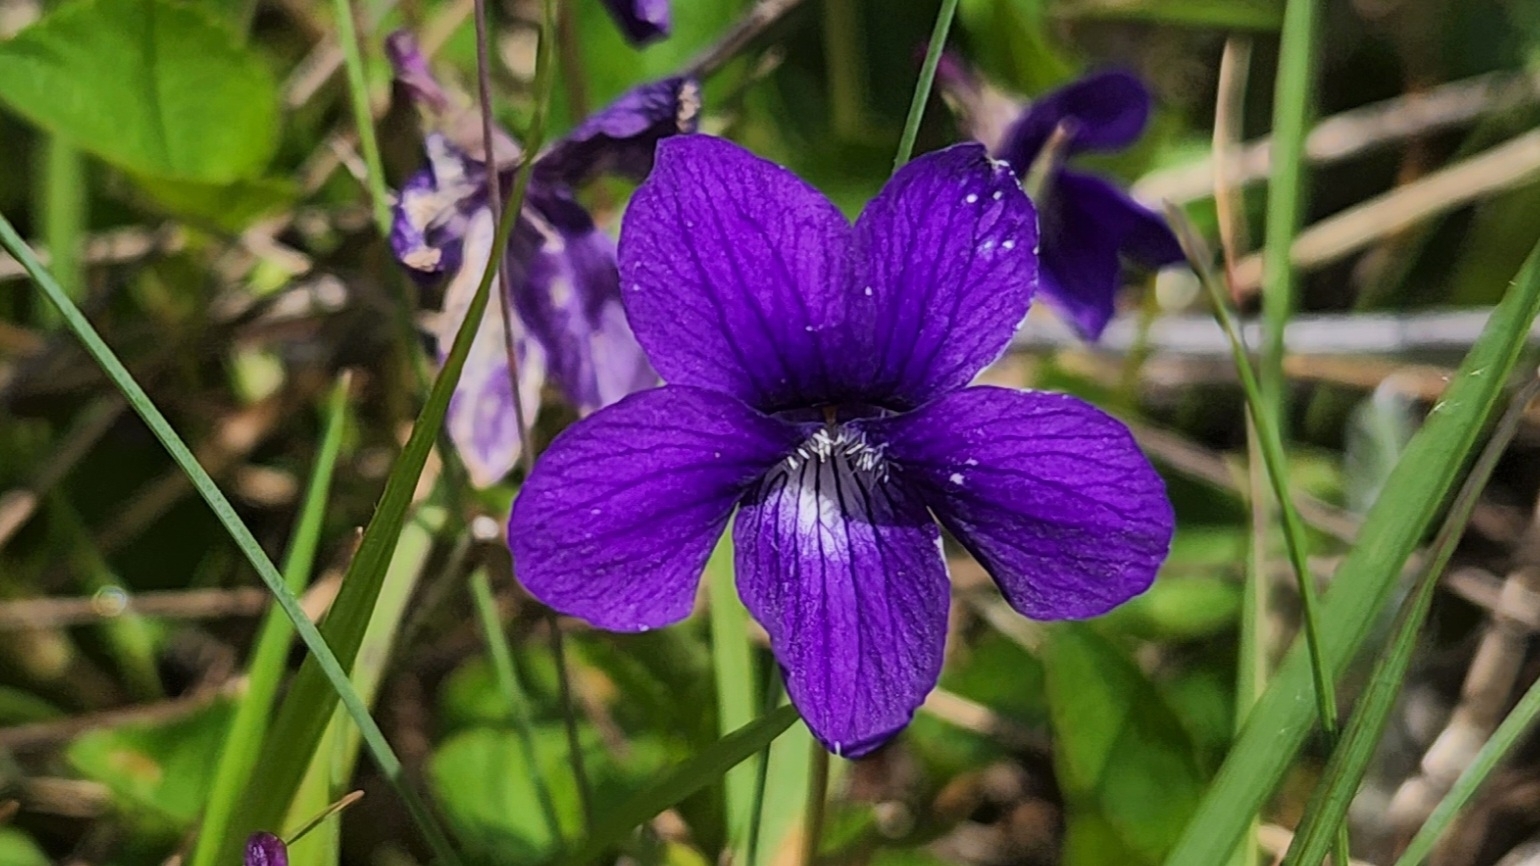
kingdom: Plantae
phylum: Tracheophyta
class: Magnoliopsida
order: Malpighiales
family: Violaceae
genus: Viola
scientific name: Viola adunca
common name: Sand violet
